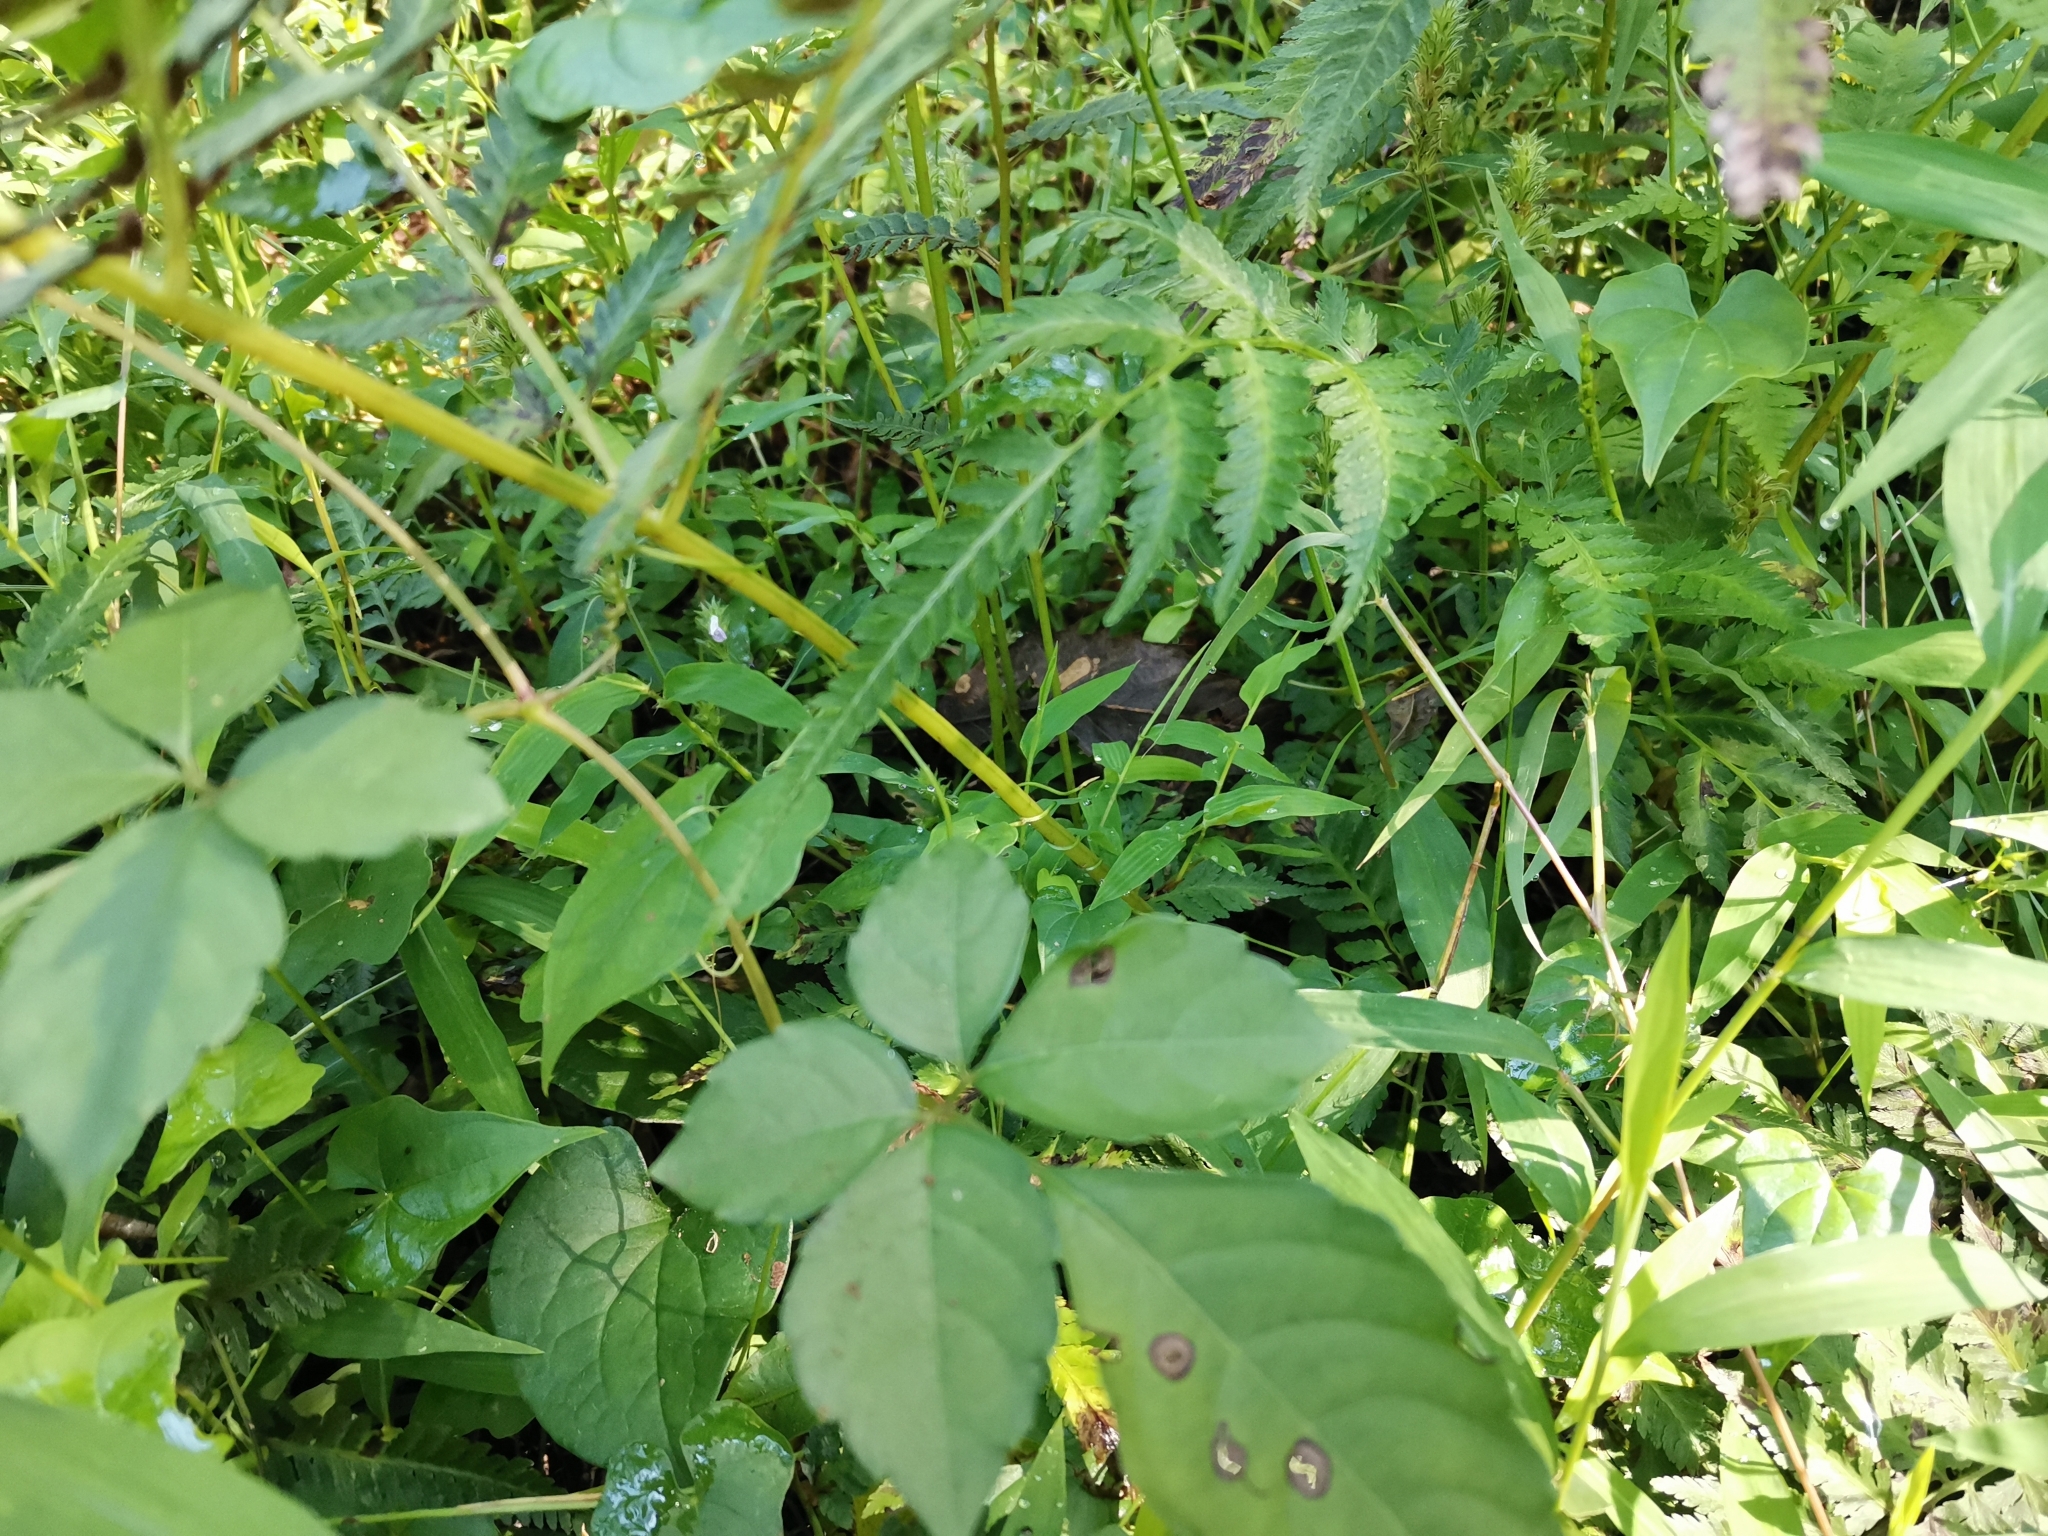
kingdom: Plantae
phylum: Tracheophyta
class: Polypodiopsida
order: Polypodiales
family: Athyriaceae
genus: Anisocampium
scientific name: Anisocampium niponicum
